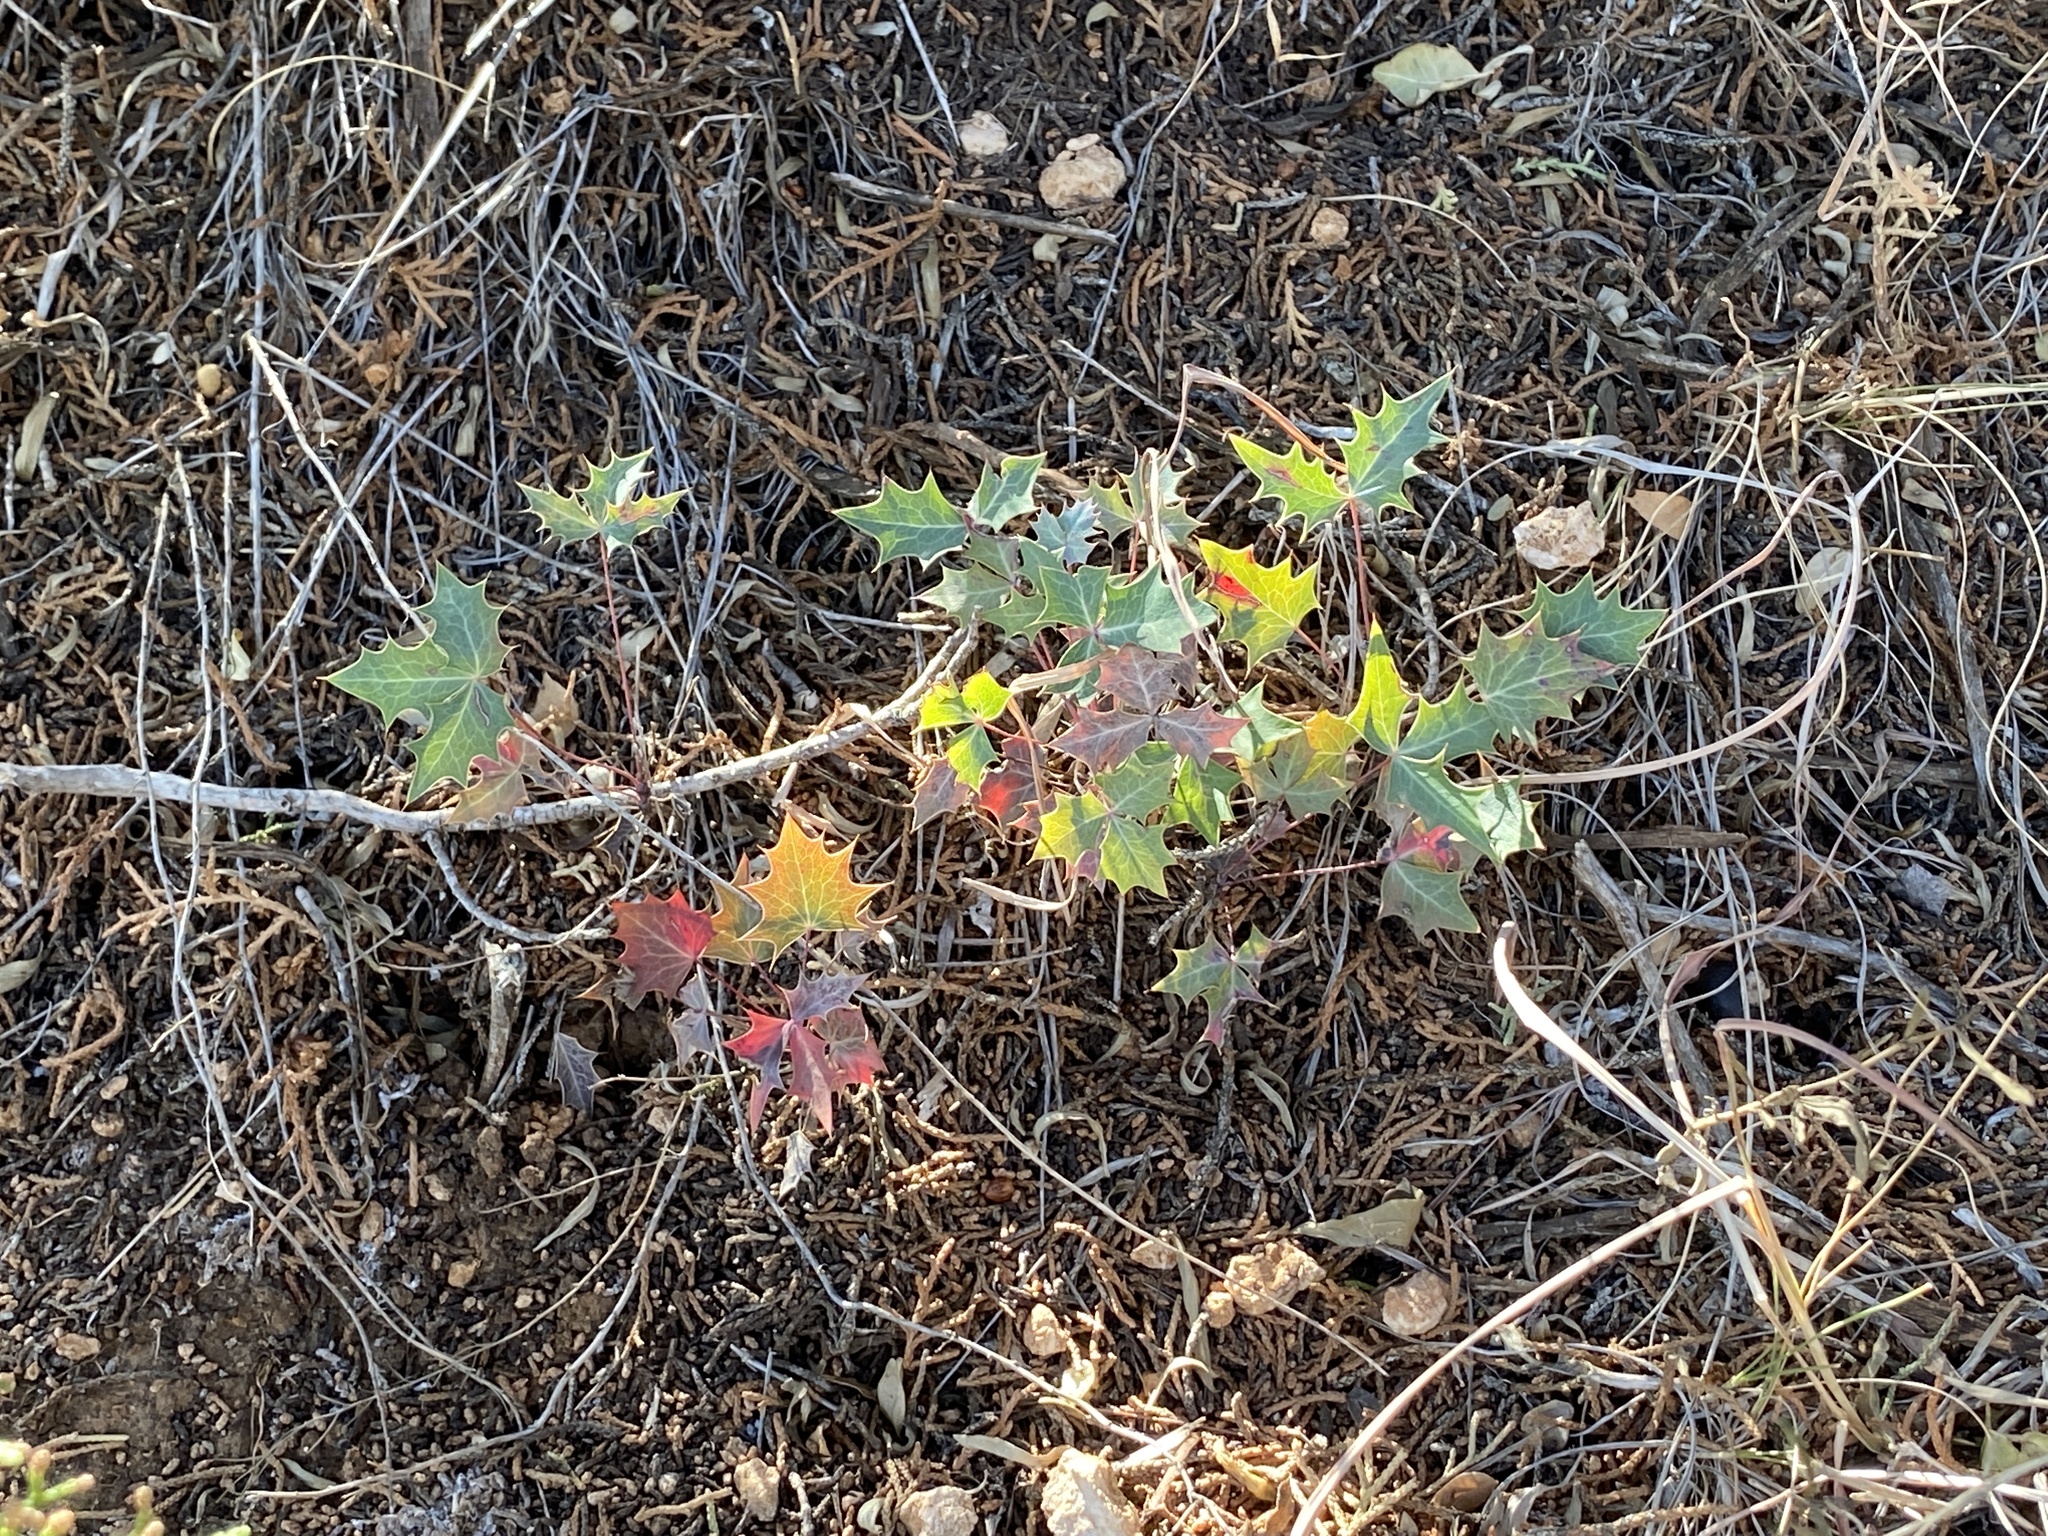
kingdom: Plantae
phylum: Tracheophyta
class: Magnoliopsida
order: Ranunculales
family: Berberidaceae
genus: Alloberberis
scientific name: Alloberberis trifoliolata
